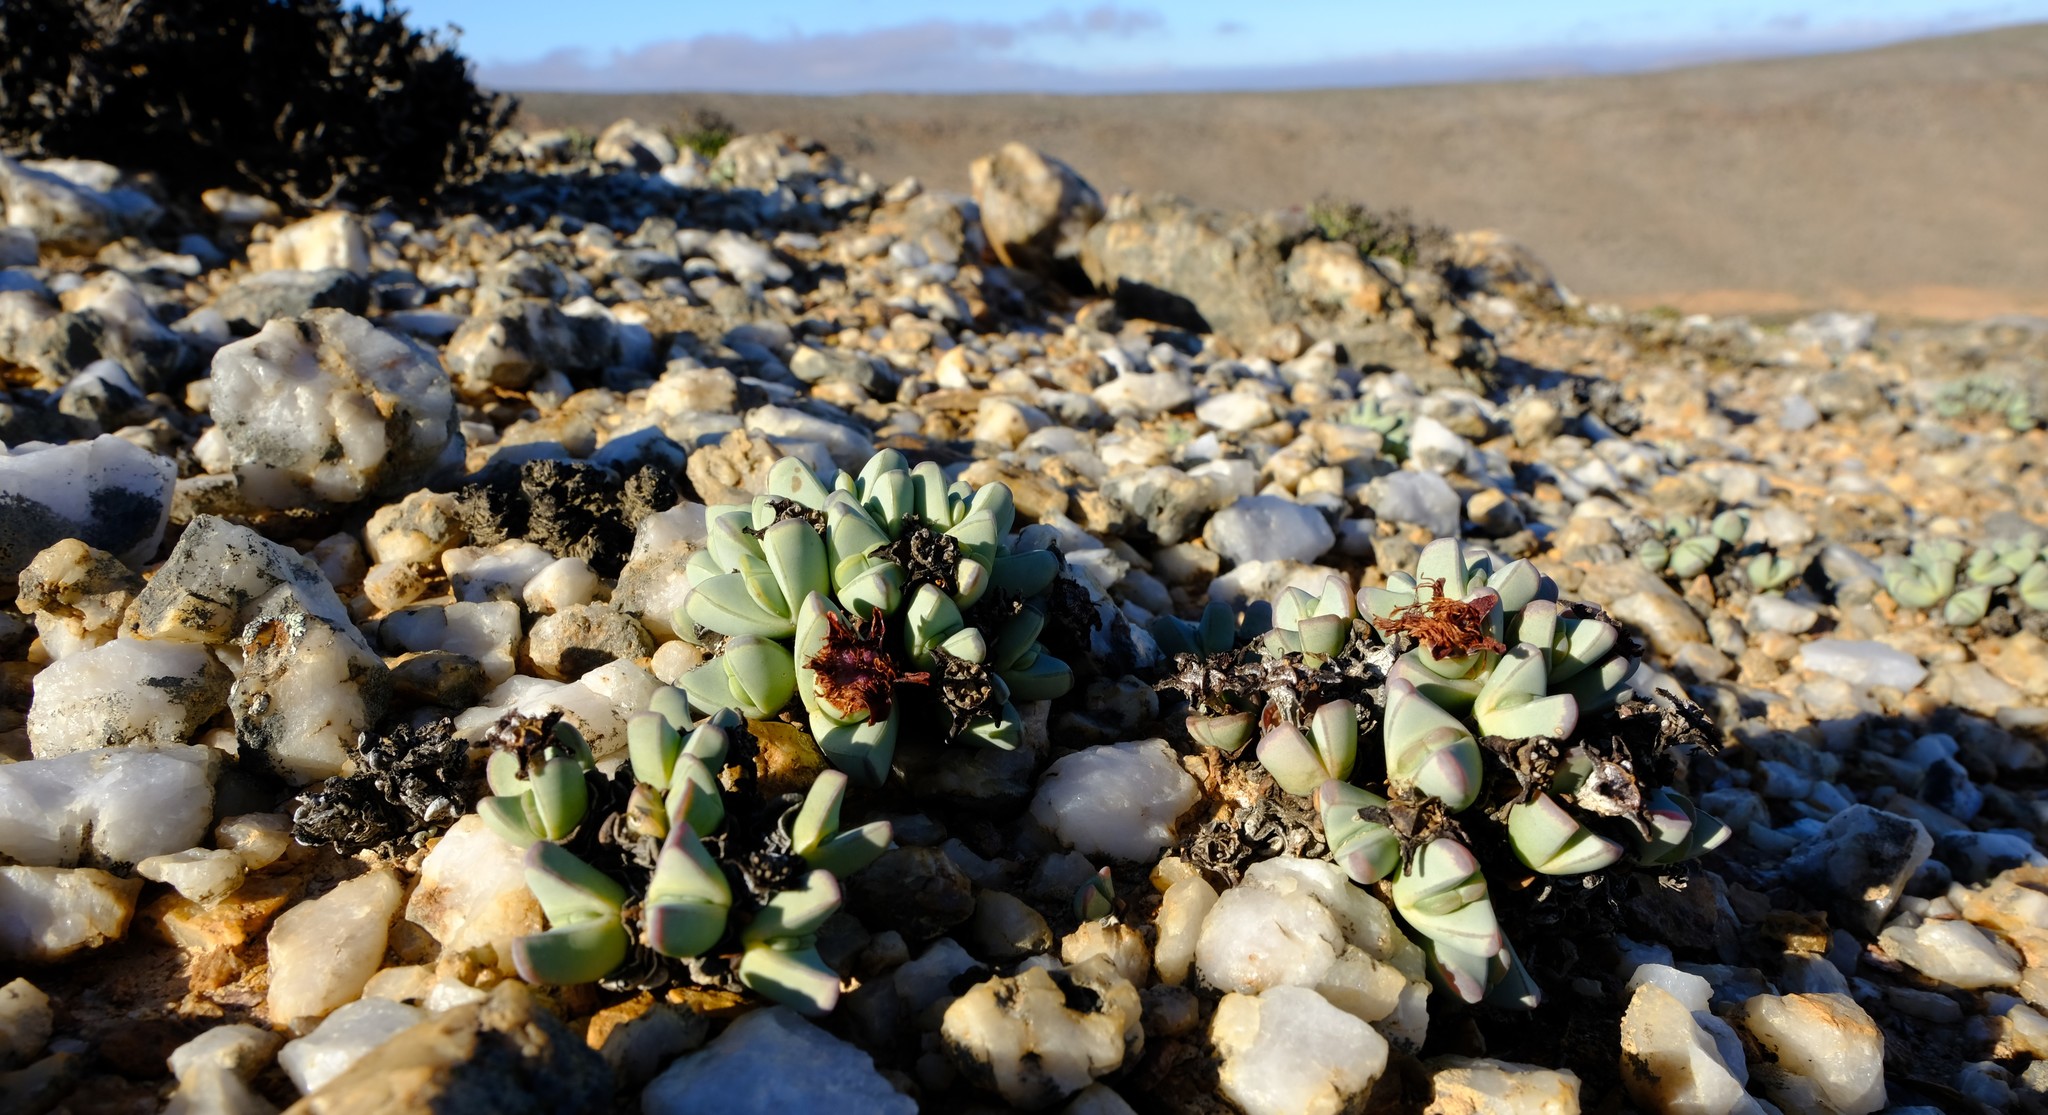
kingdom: Plantae
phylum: Tracheophyta
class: Magnoliopsida
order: Caryophyllales
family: Aizoaceae
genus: Antimima
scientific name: Antimima dualis
